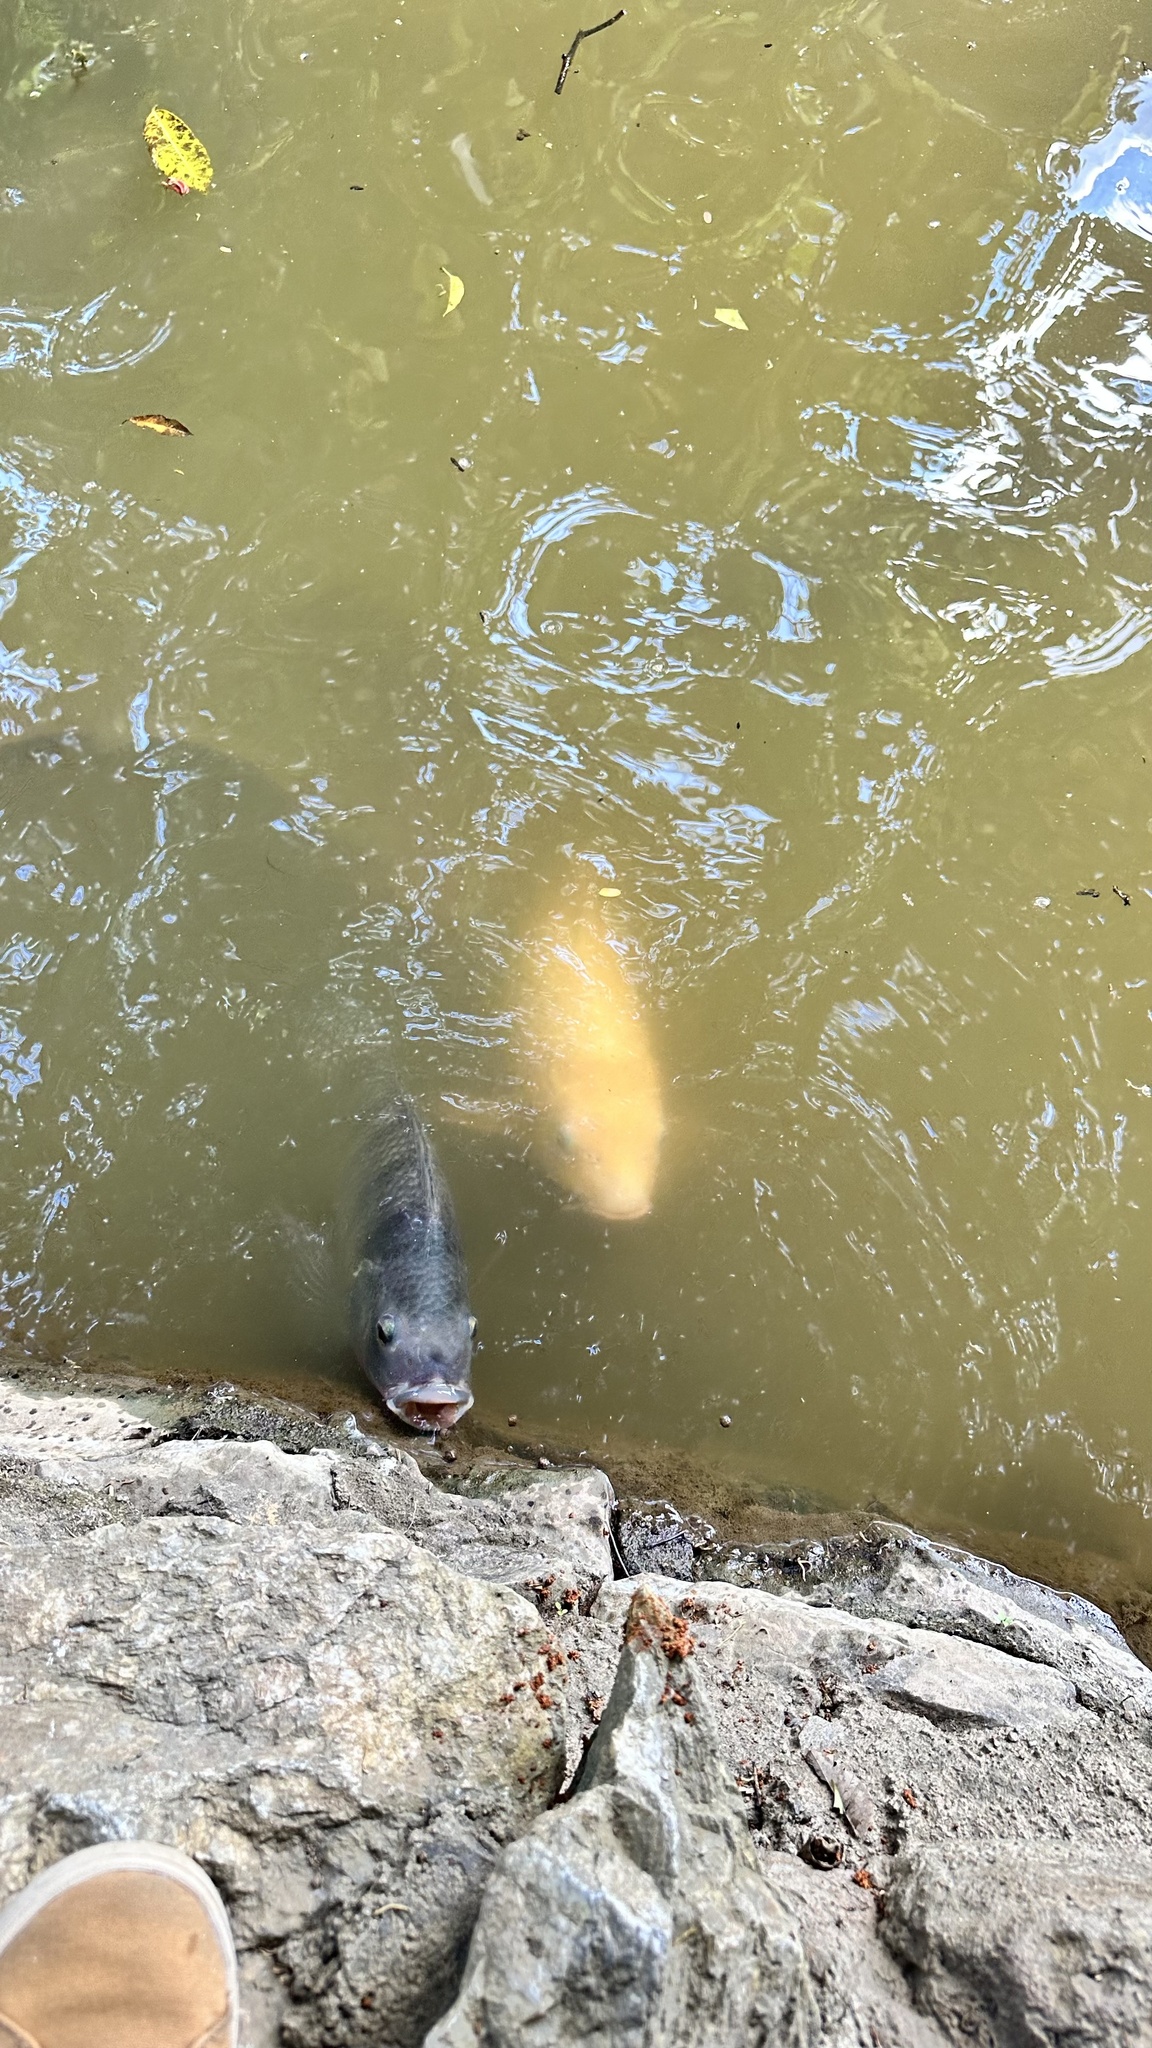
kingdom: Animalia
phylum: Chordata
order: Perciformes
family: Cichlidae
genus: Oreochromis
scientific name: Oreochromis niloticus
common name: Nile tilapia
